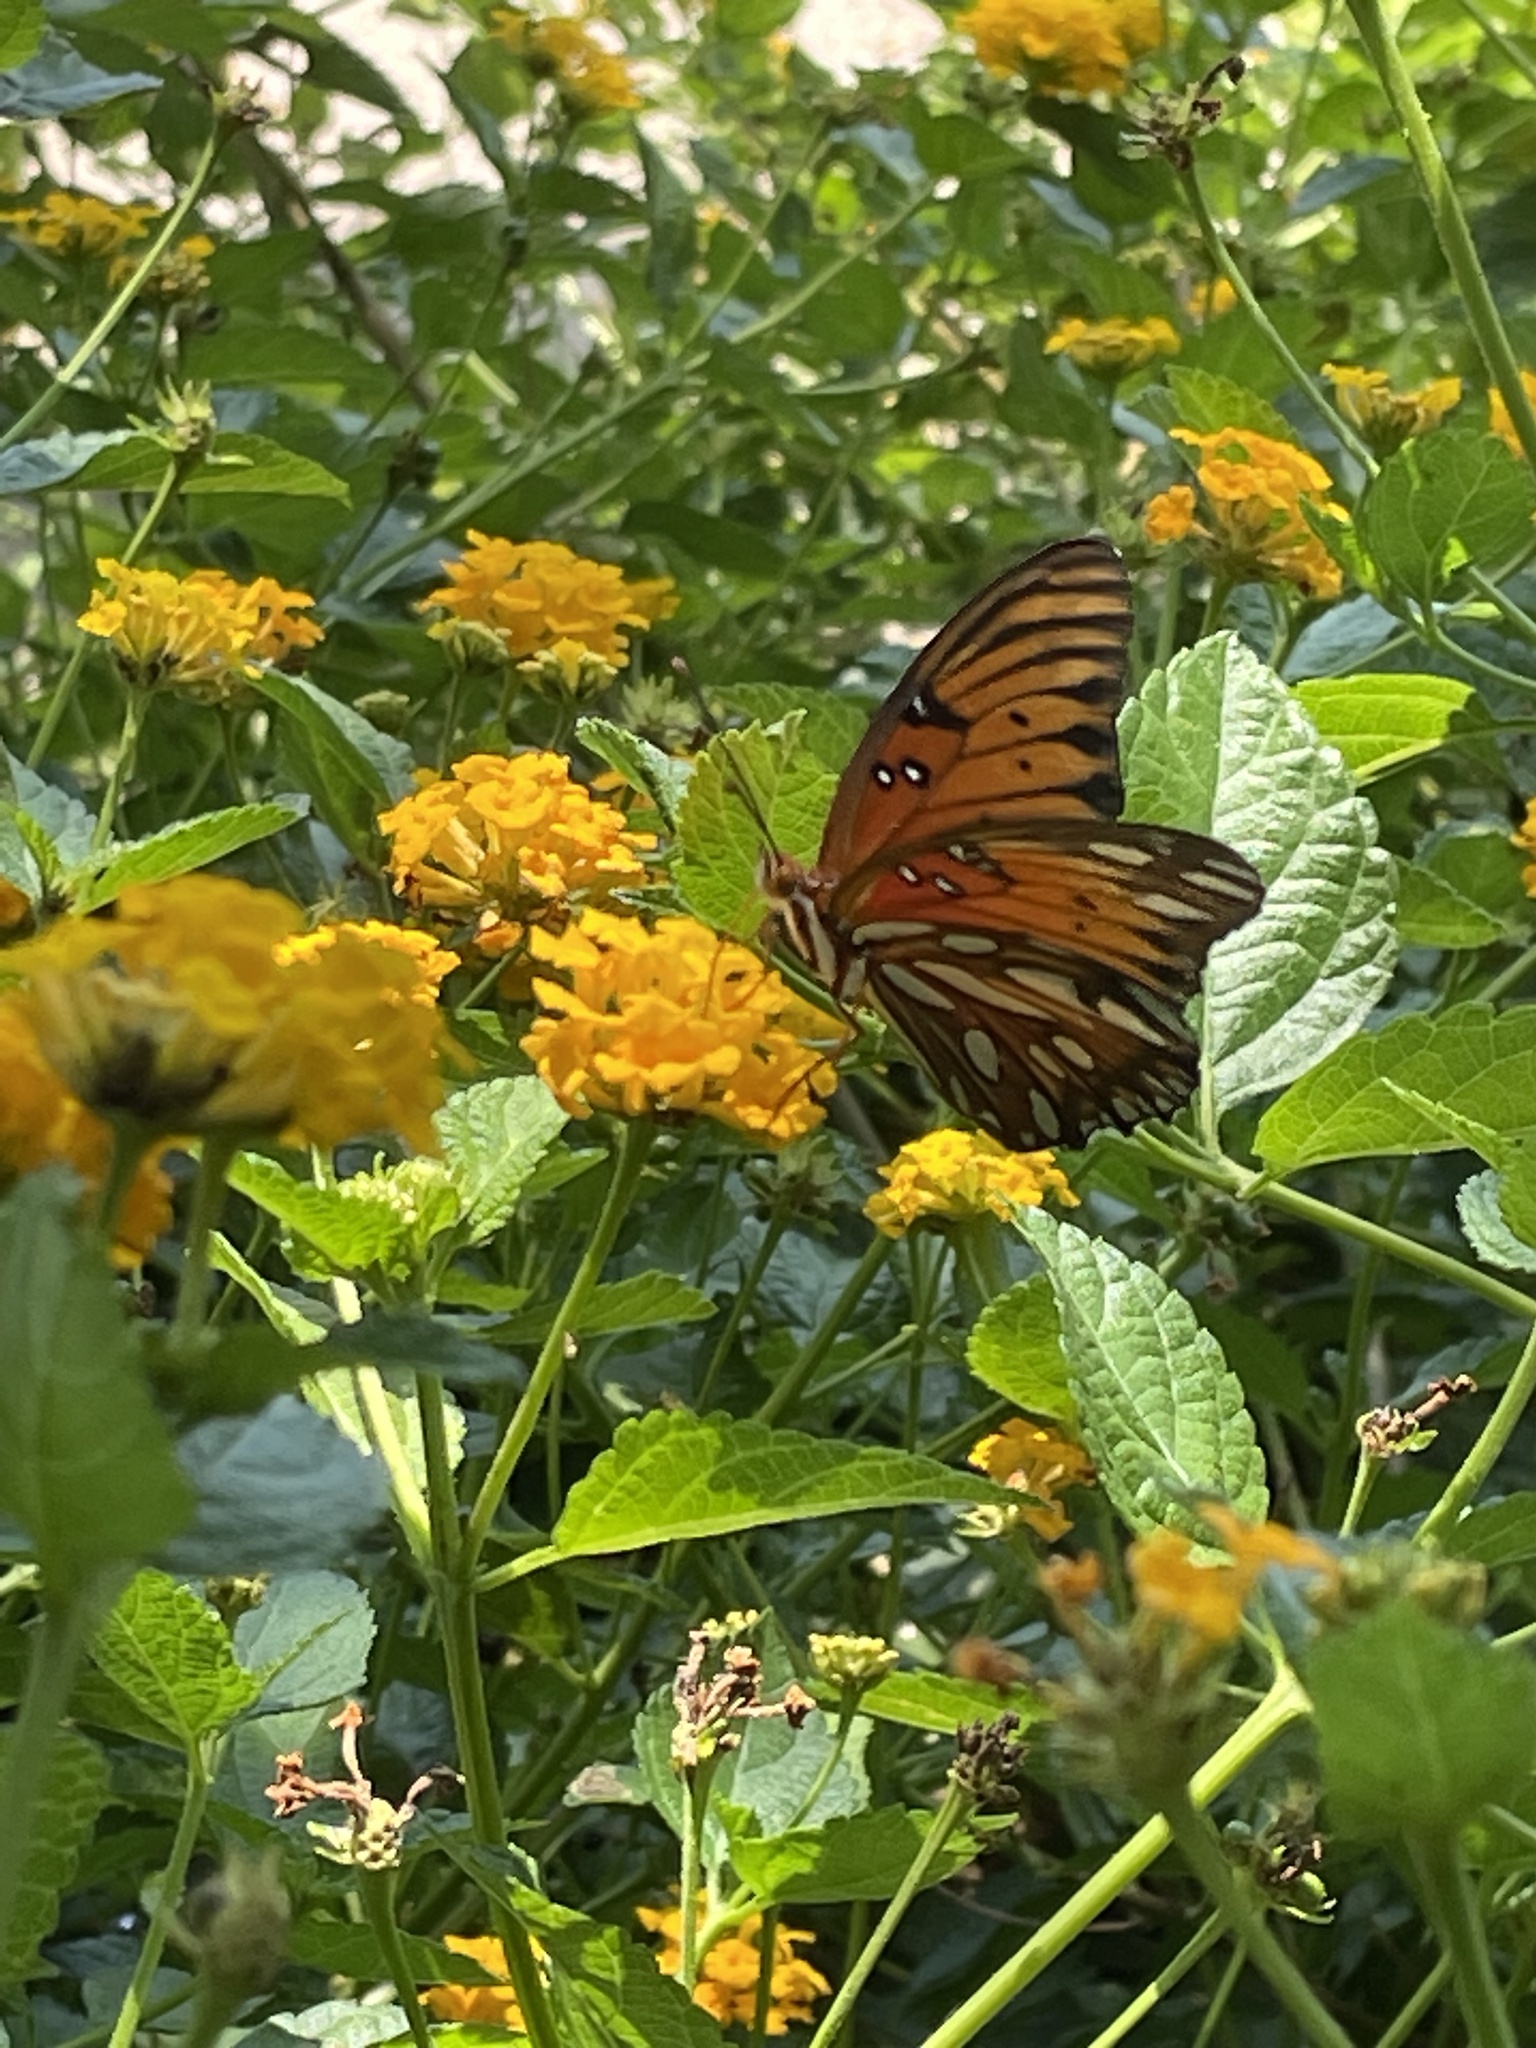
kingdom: Animalia
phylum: Arthropoda
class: Insecta
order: Lepidoptera
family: Nymphalidae
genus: Dione
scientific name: Dione vanillae
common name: Gulf fritillary
